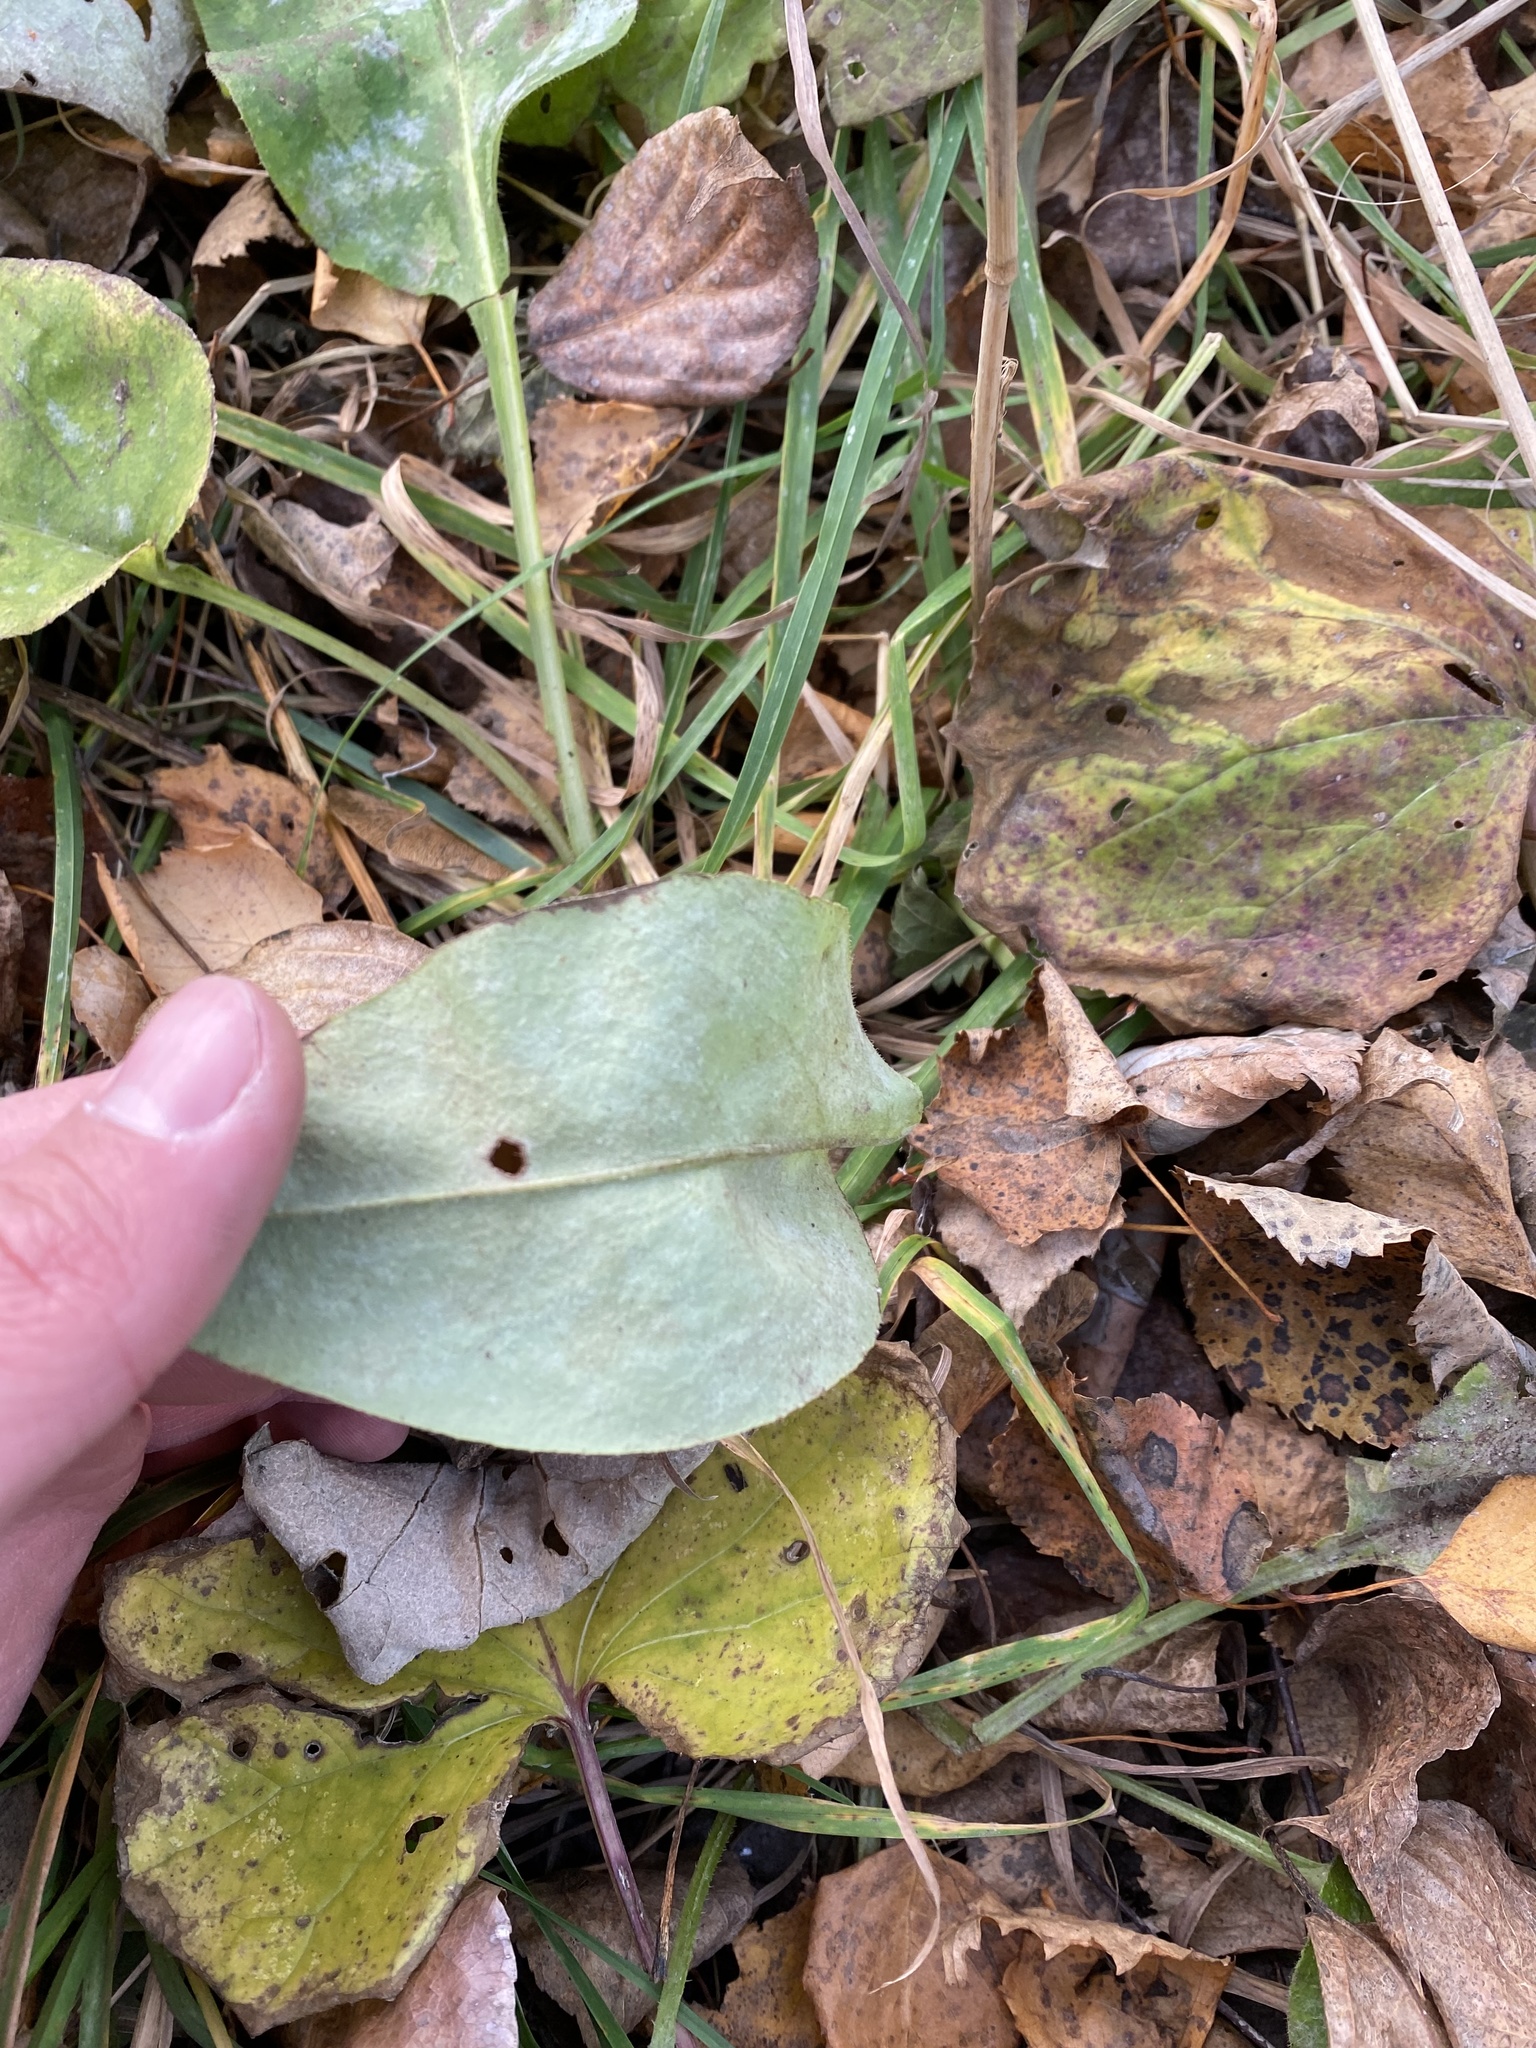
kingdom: Plantae
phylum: Tracheophyta
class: Magnoliopsida
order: Boraginales
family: Boraginaceae
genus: Pulmonaria
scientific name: Pulmonaria obscura
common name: Suffolk lungwort
